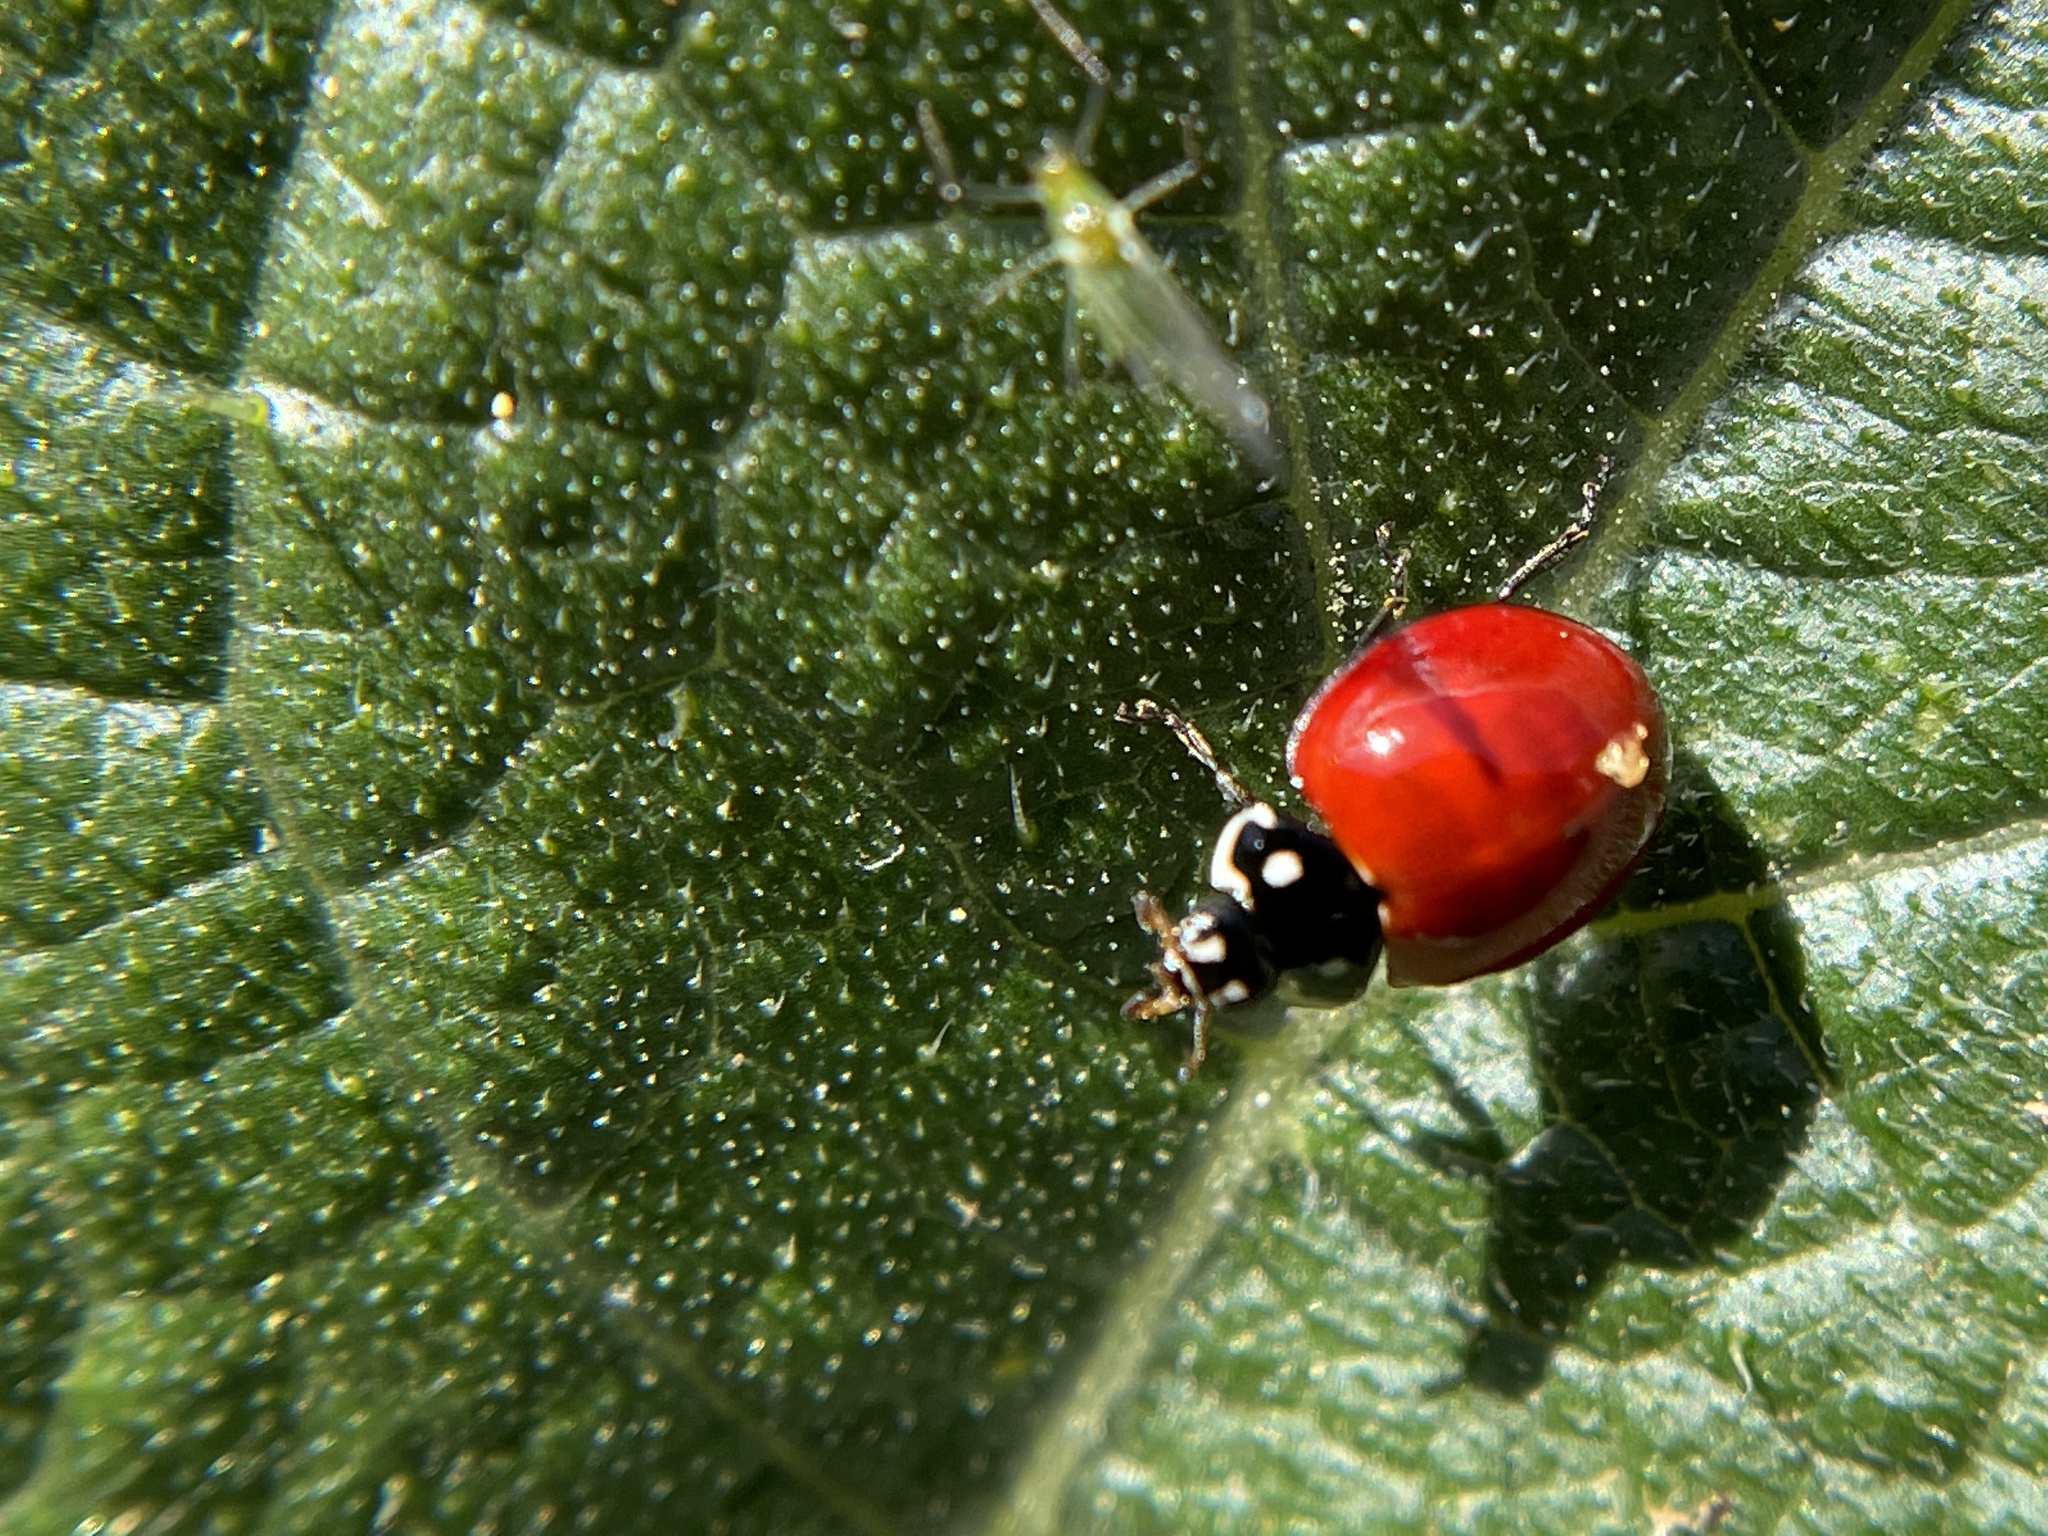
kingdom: Animalia
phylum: Arthropoda
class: Insecta
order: Coleoptera
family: Coccinellidae
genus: Cycloneda
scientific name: Cycloneda sanguinea
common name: Ladybird beetle
